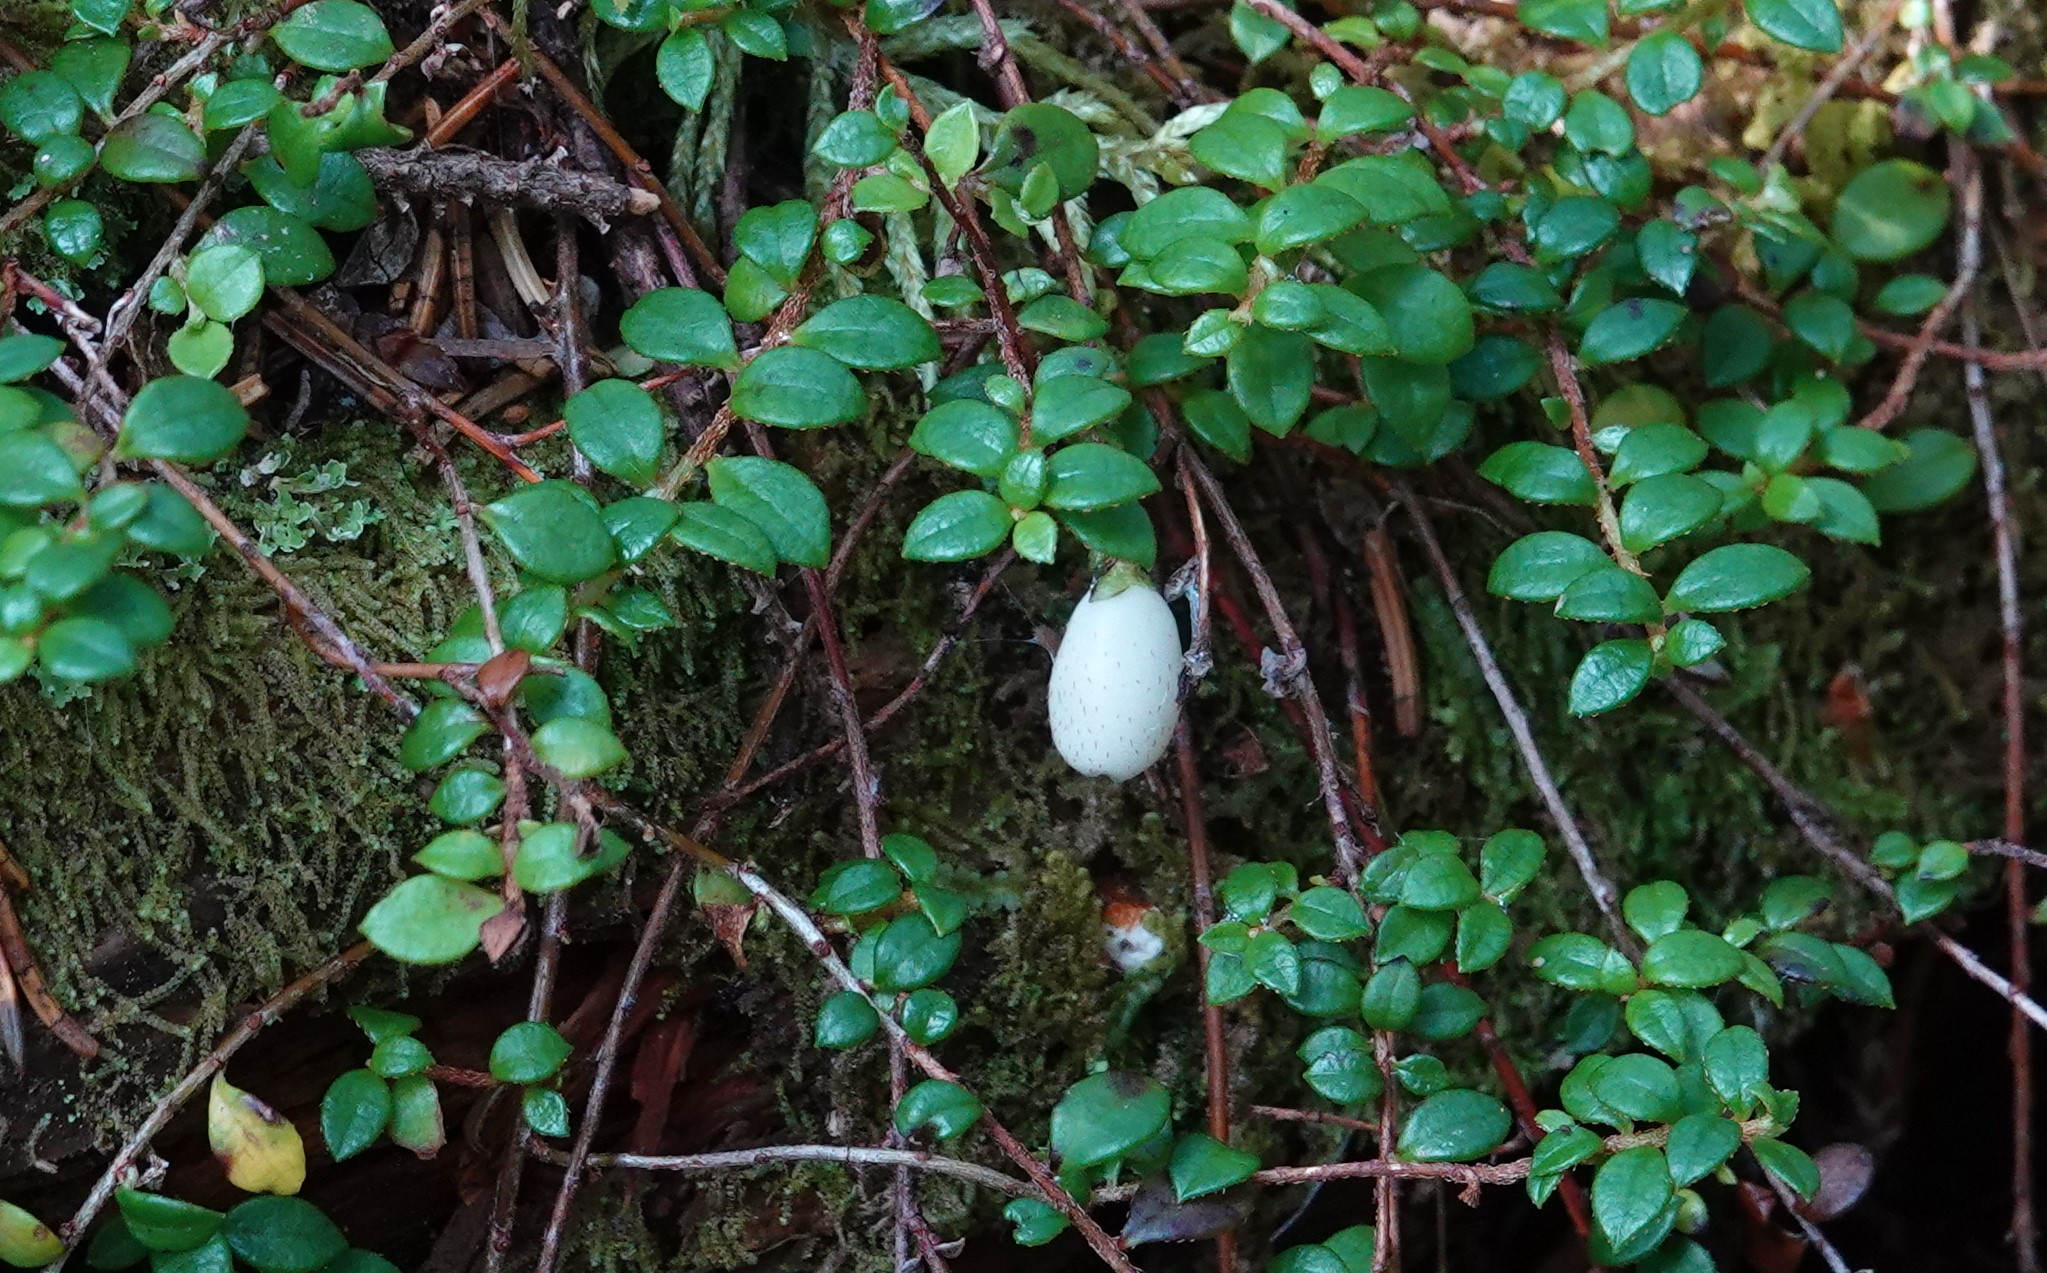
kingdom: Plantae
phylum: Tracheophyta
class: Magnoliopsida
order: Ericales
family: Ericaceae
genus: Gaultheria
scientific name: Gaultheria hispidula
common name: Cancer wintergreen
